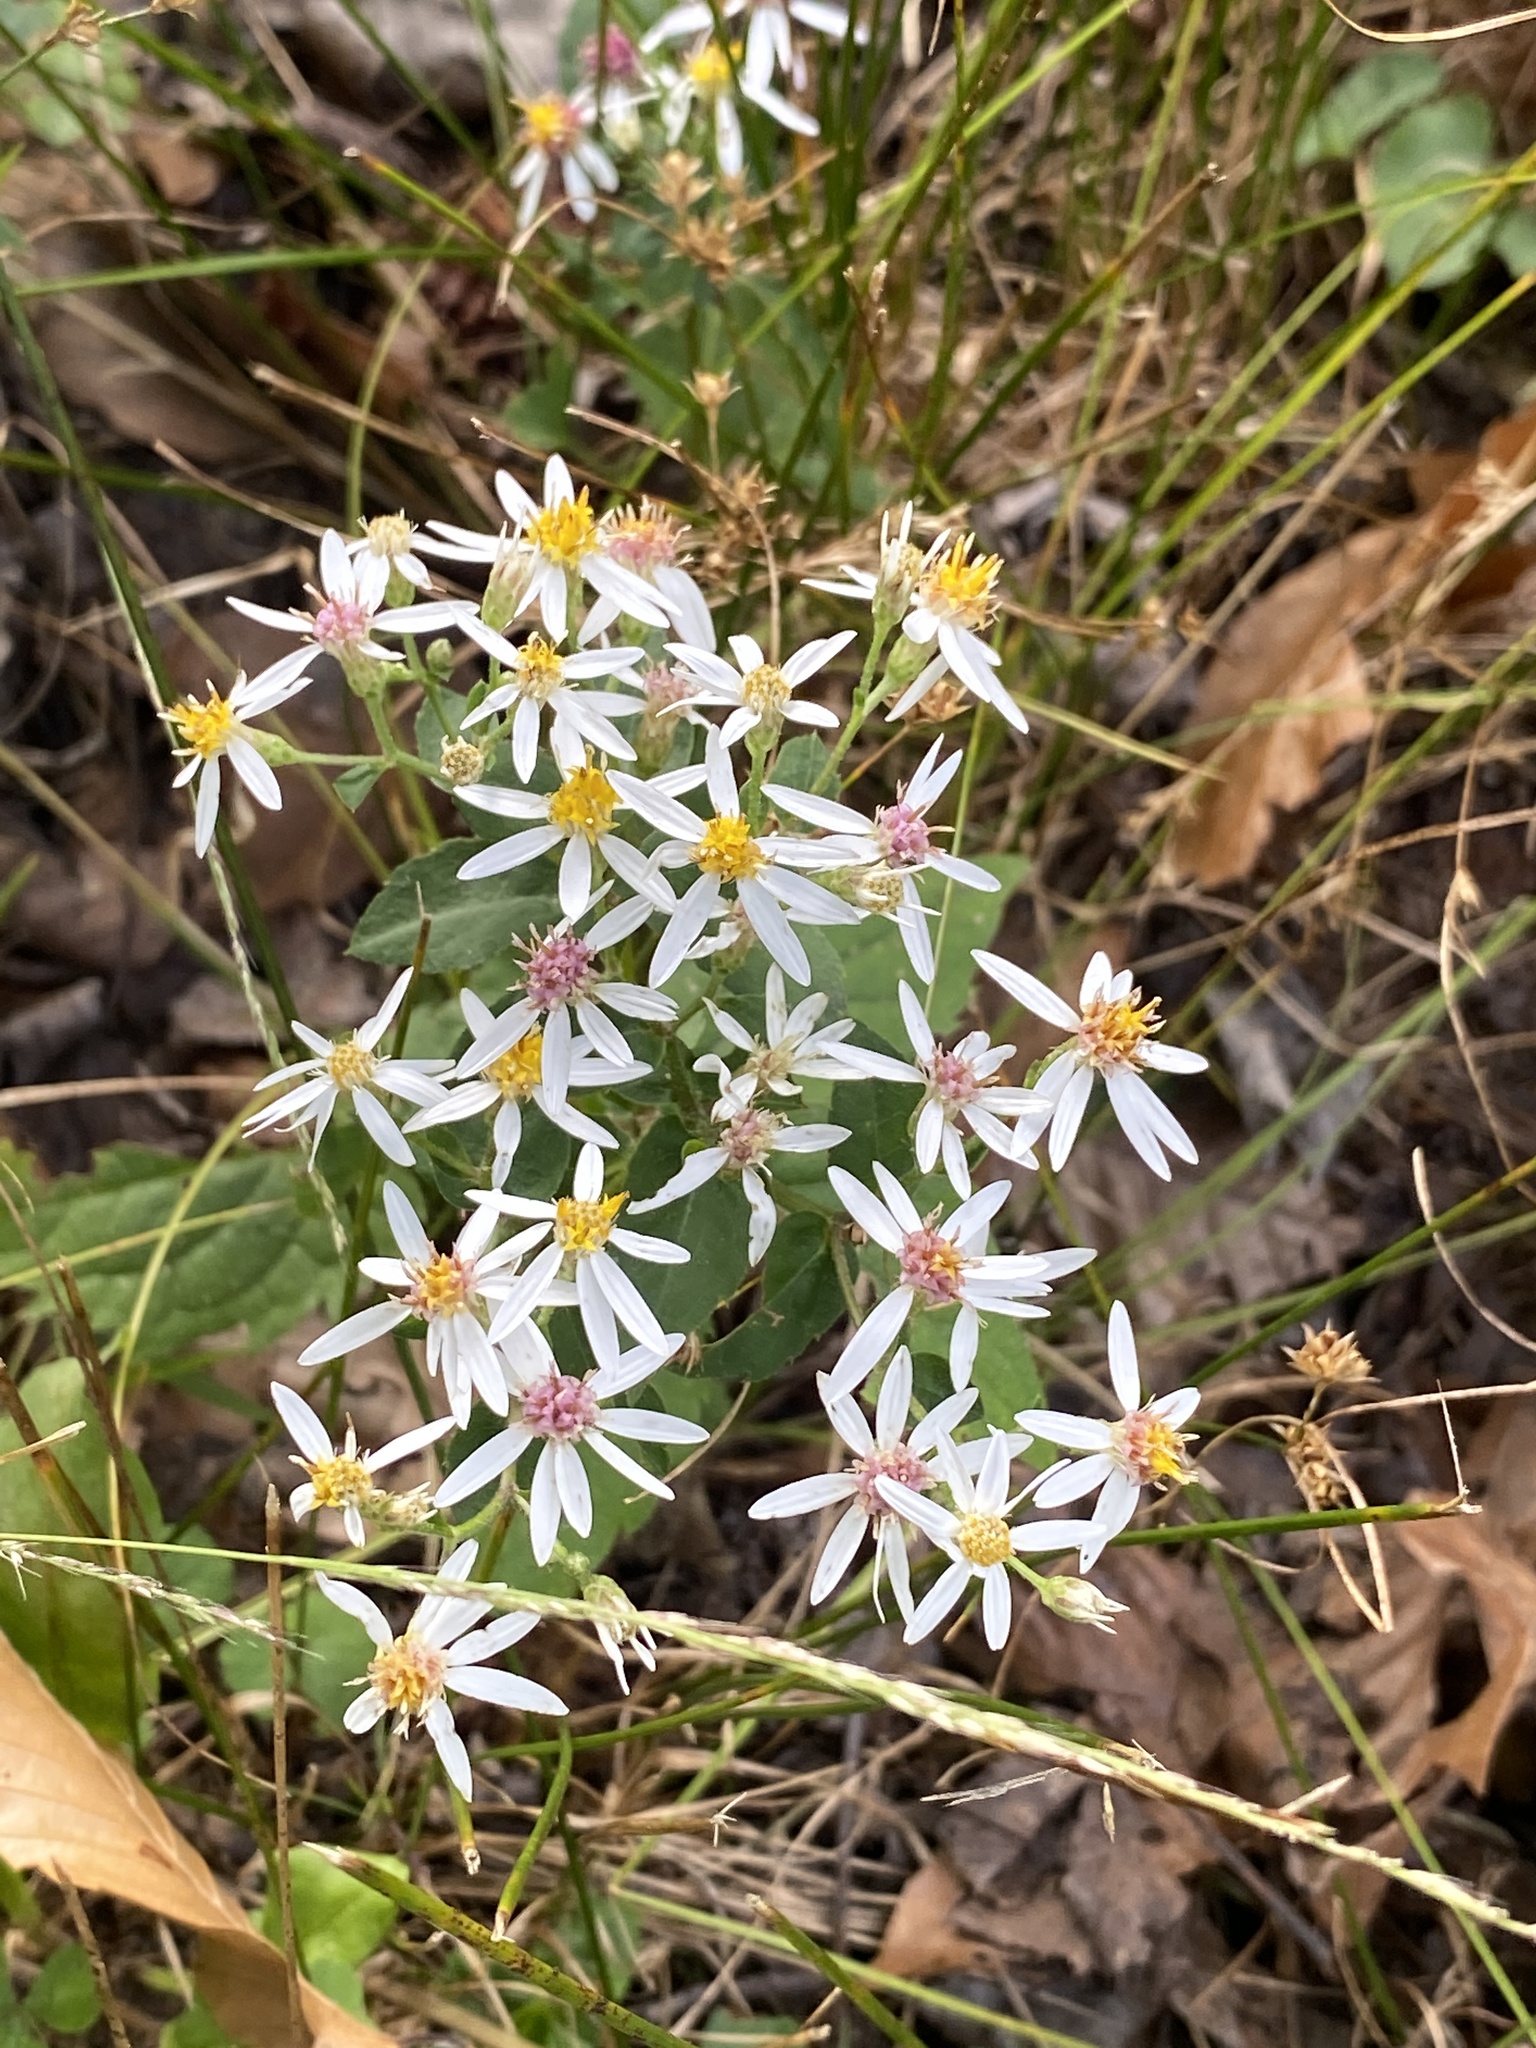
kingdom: Plantae
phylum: Tracheophyta
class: Magnoliopsida
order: Asterales
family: Asteraceae
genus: Eurybia
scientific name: Eurybia divaricata
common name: White wood aster
